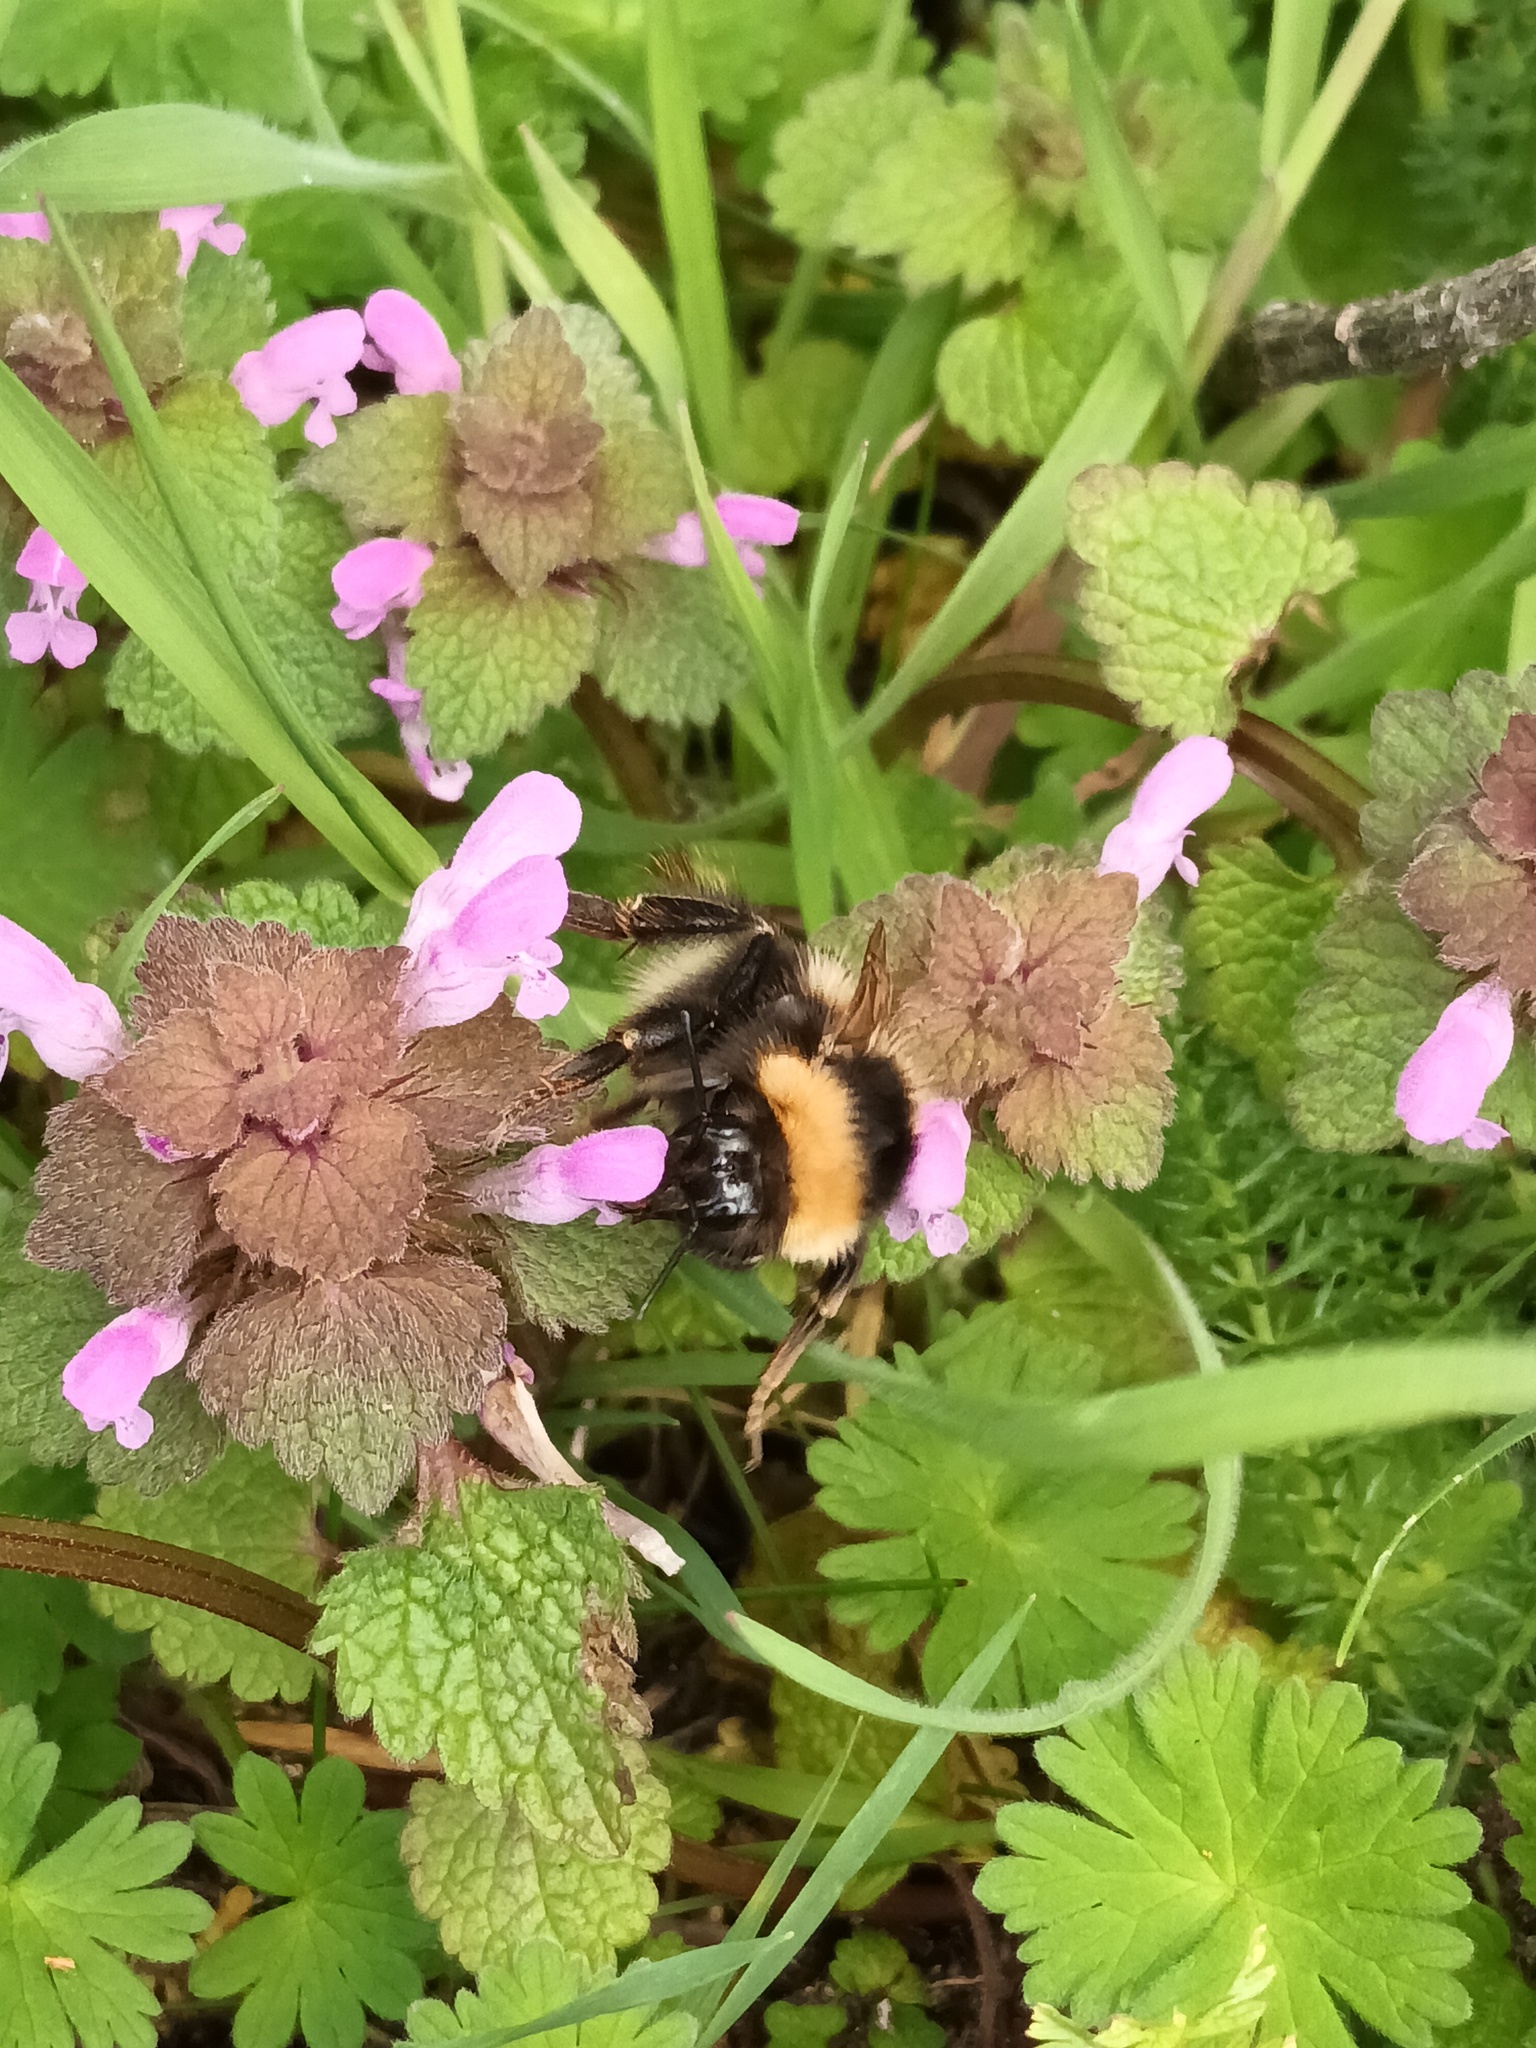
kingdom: Animalia
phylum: Arthropoda
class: Insecta
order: Hymenoptera
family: Apidae
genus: Bombus
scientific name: Bombus hortorum
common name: Garden bumblebee
